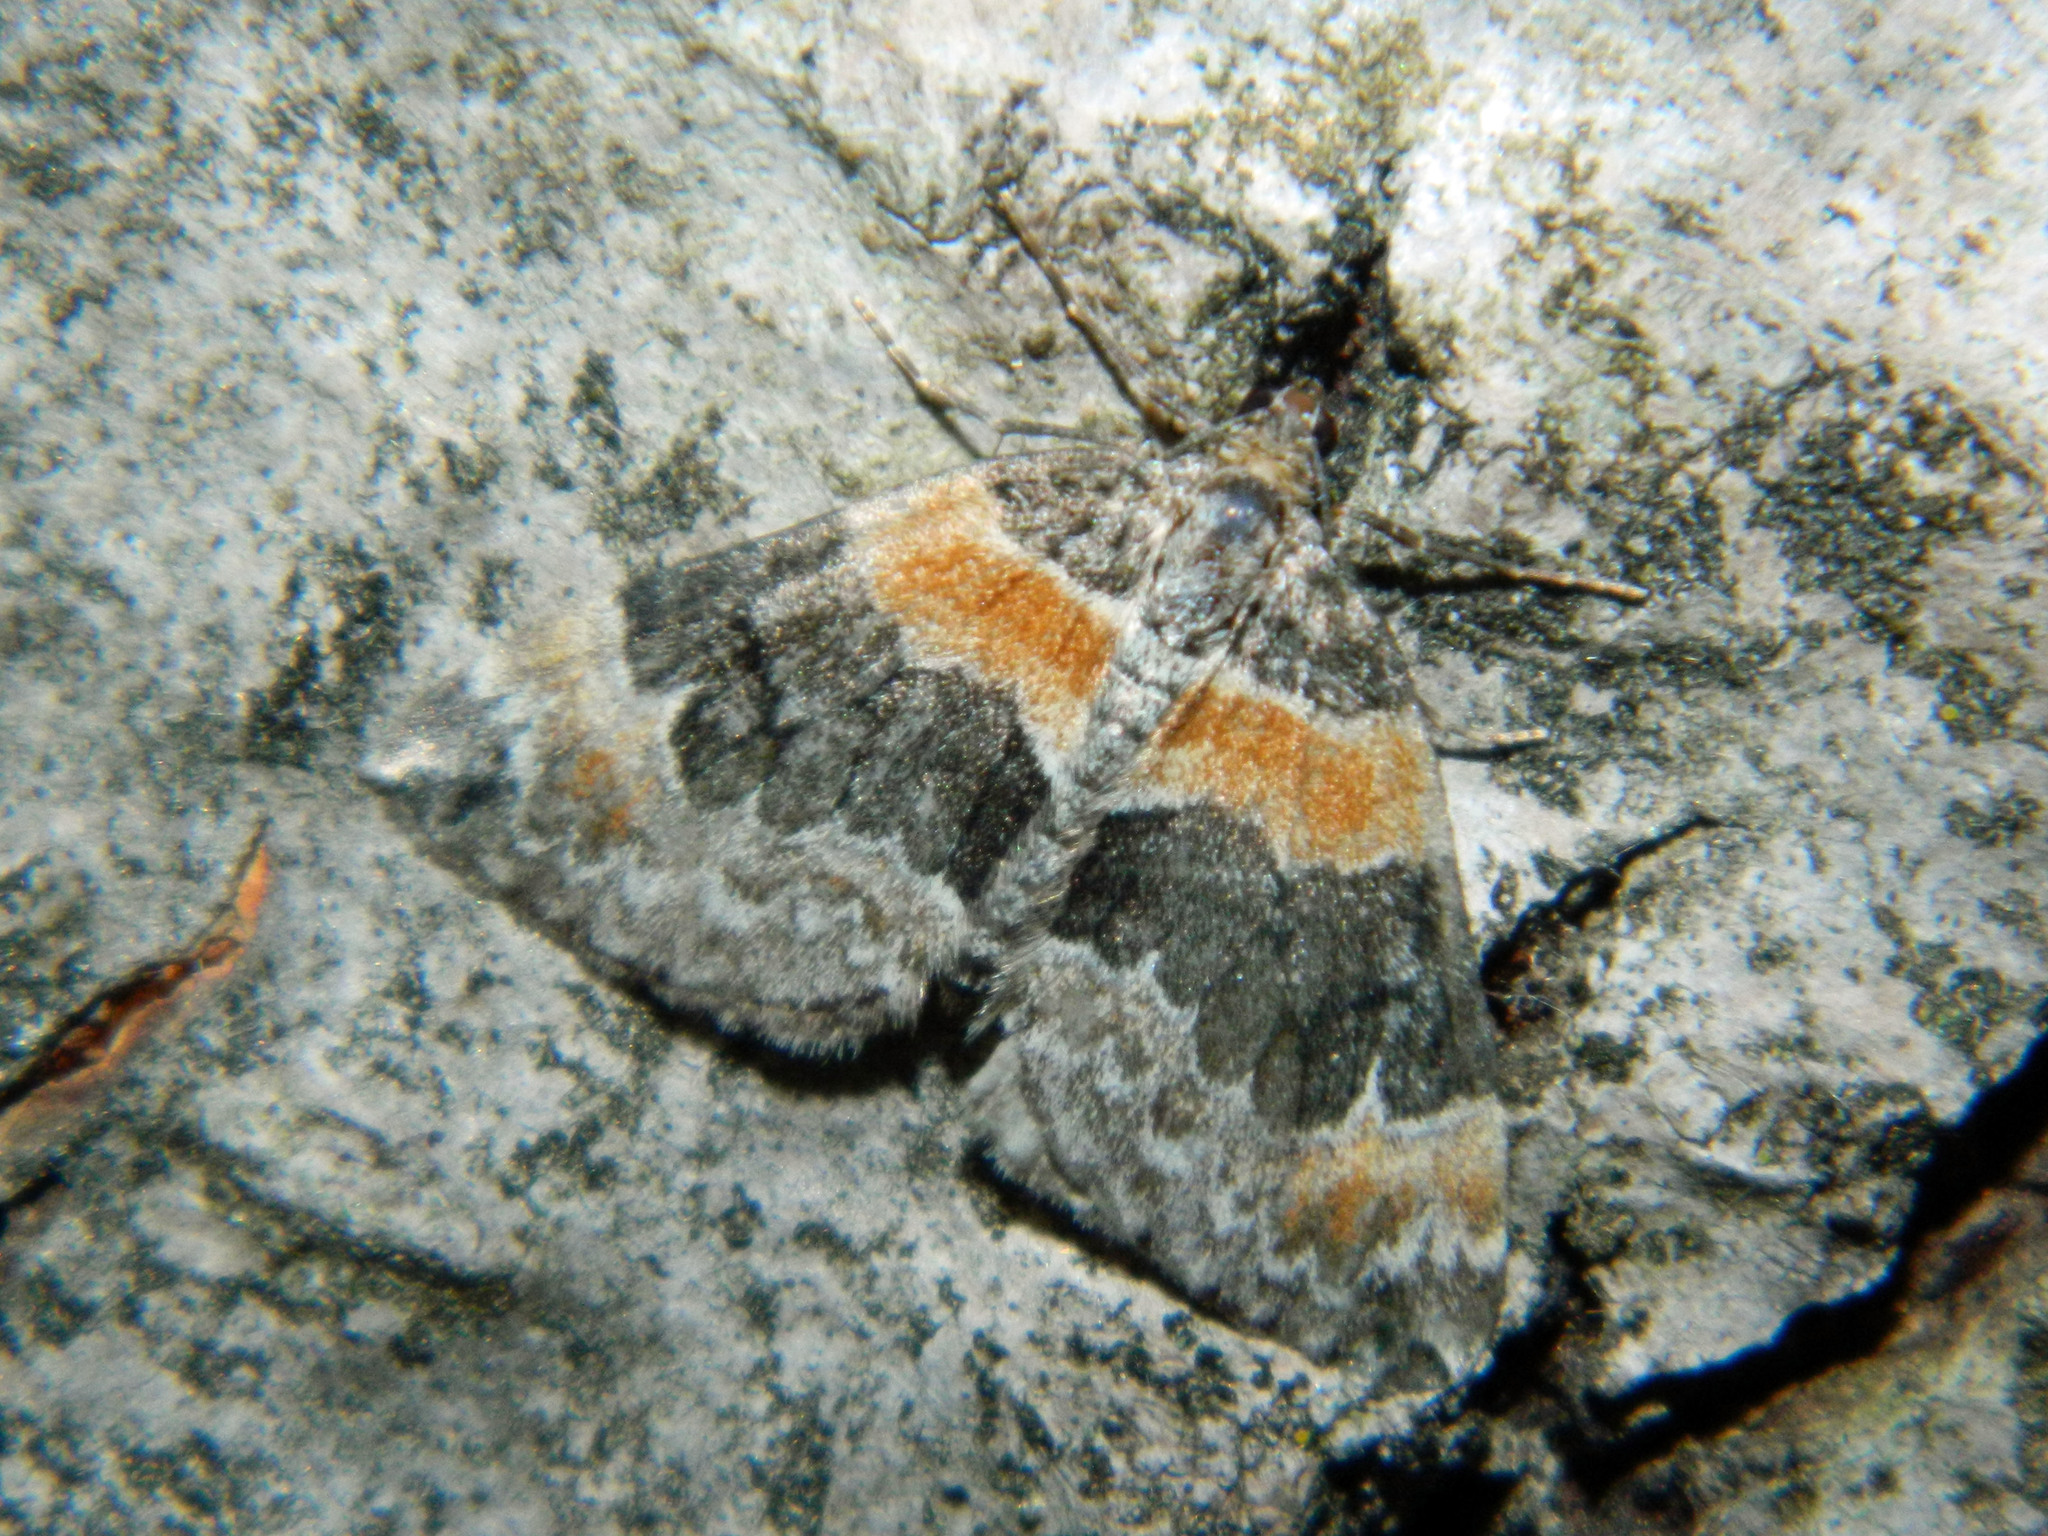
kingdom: Animalia
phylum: Arthropoda
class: Insecta
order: Lepidoptera
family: Geometridae
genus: Dysstroma
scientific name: Dysstroma hersiliata
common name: Orange-barred carpet
